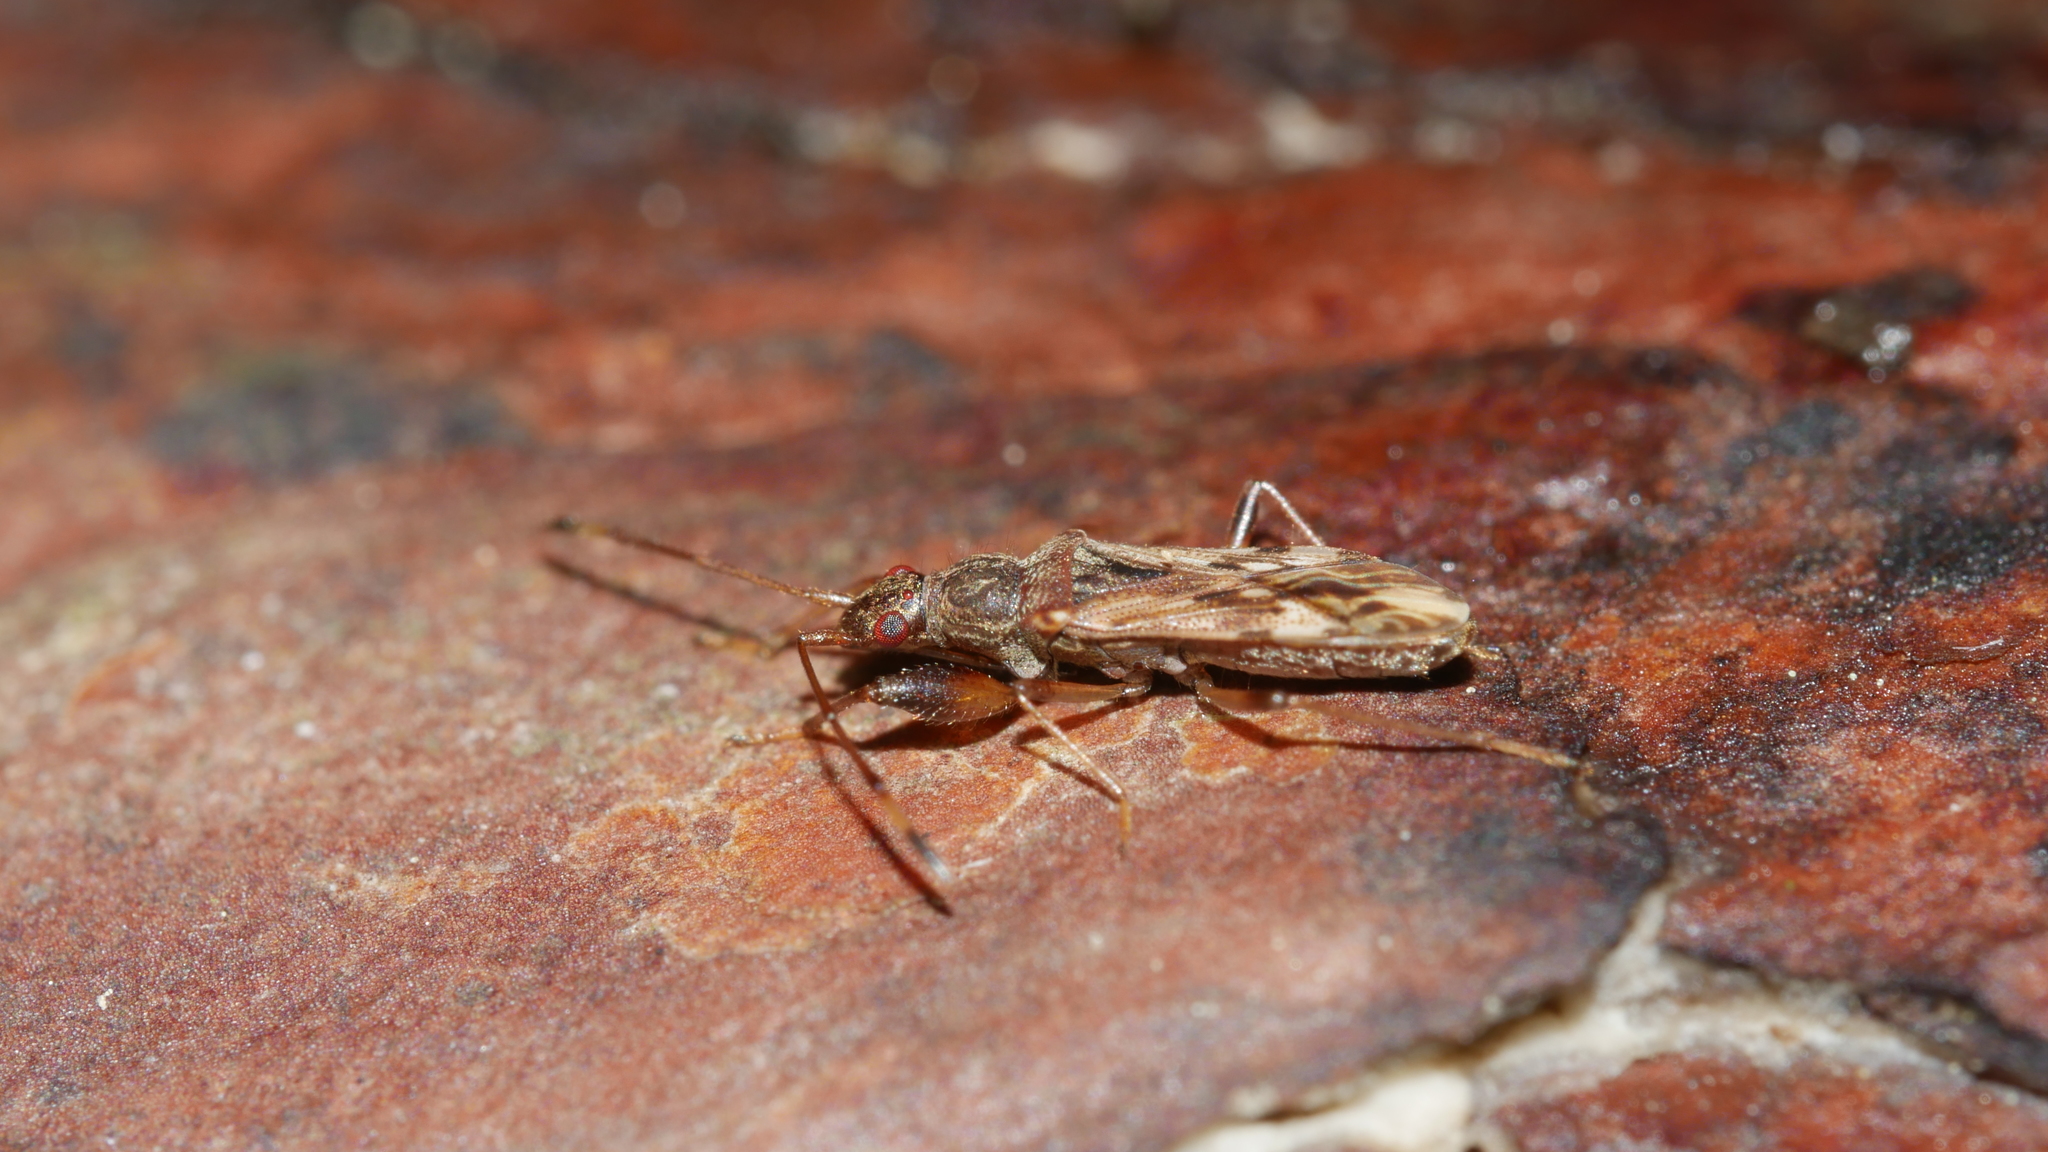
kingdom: Animalia
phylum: Arthropoda
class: Insecta
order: Hemiptera
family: Rhyparochromidae
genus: Neopamera
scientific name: Neopamera albocincta
